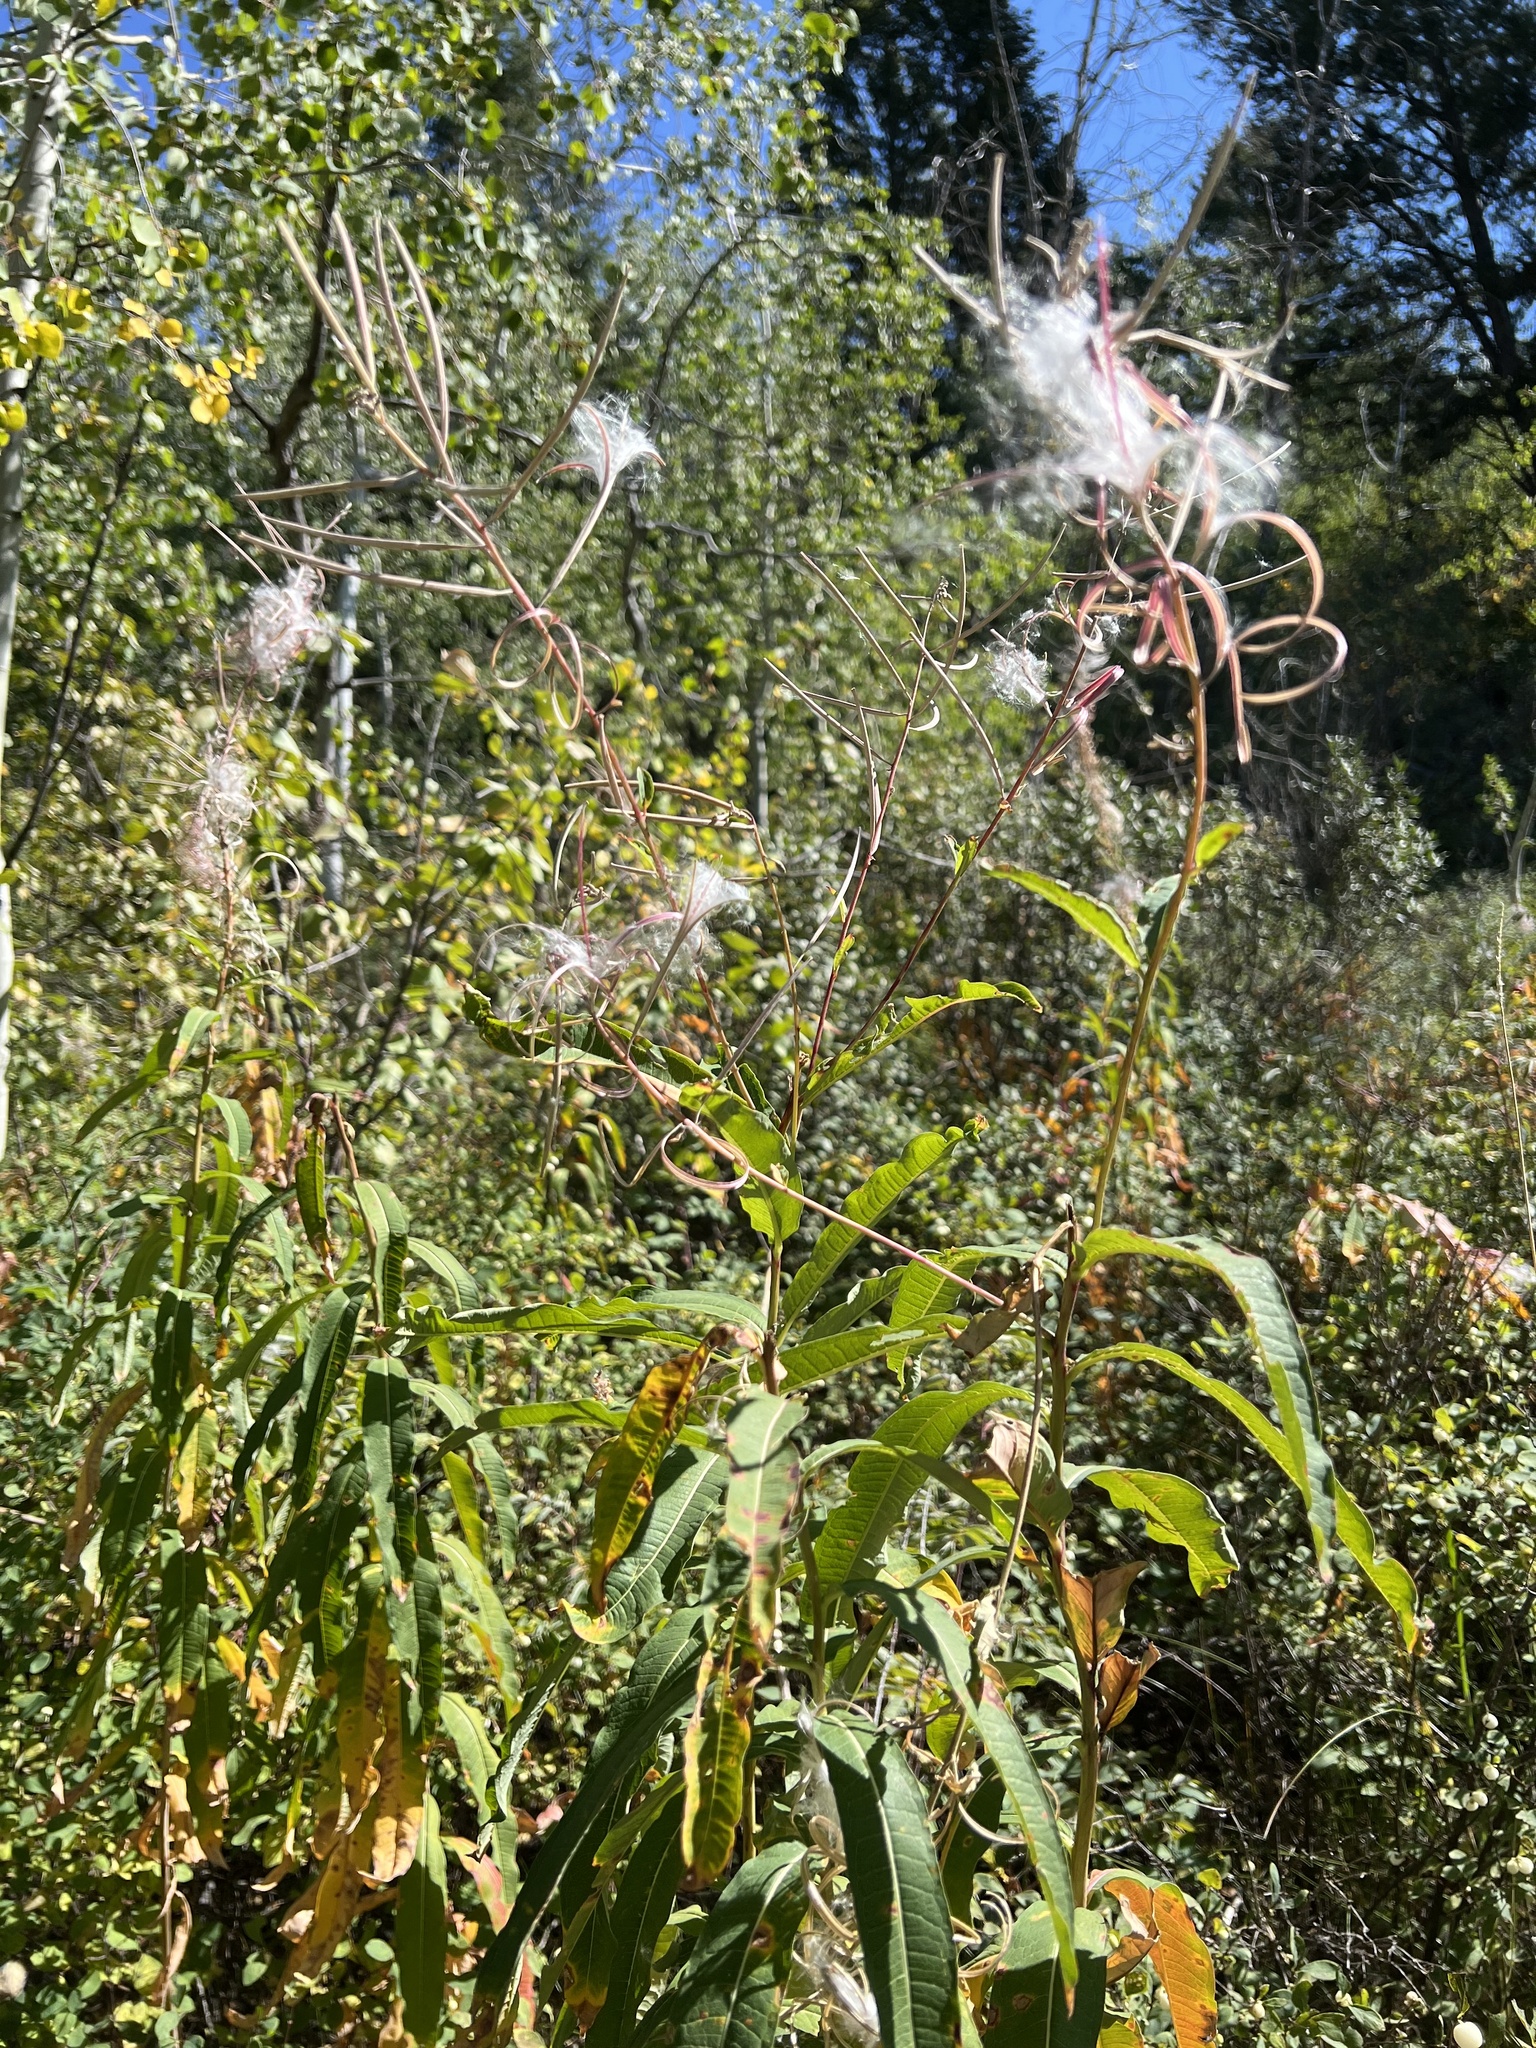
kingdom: Plantae
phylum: Tracheophyta
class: Magnoliopsida
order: Myrtales
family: Onagraceae
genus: Chamaenerion
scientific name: Chamaenerion angustifolium
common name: Fireweed
